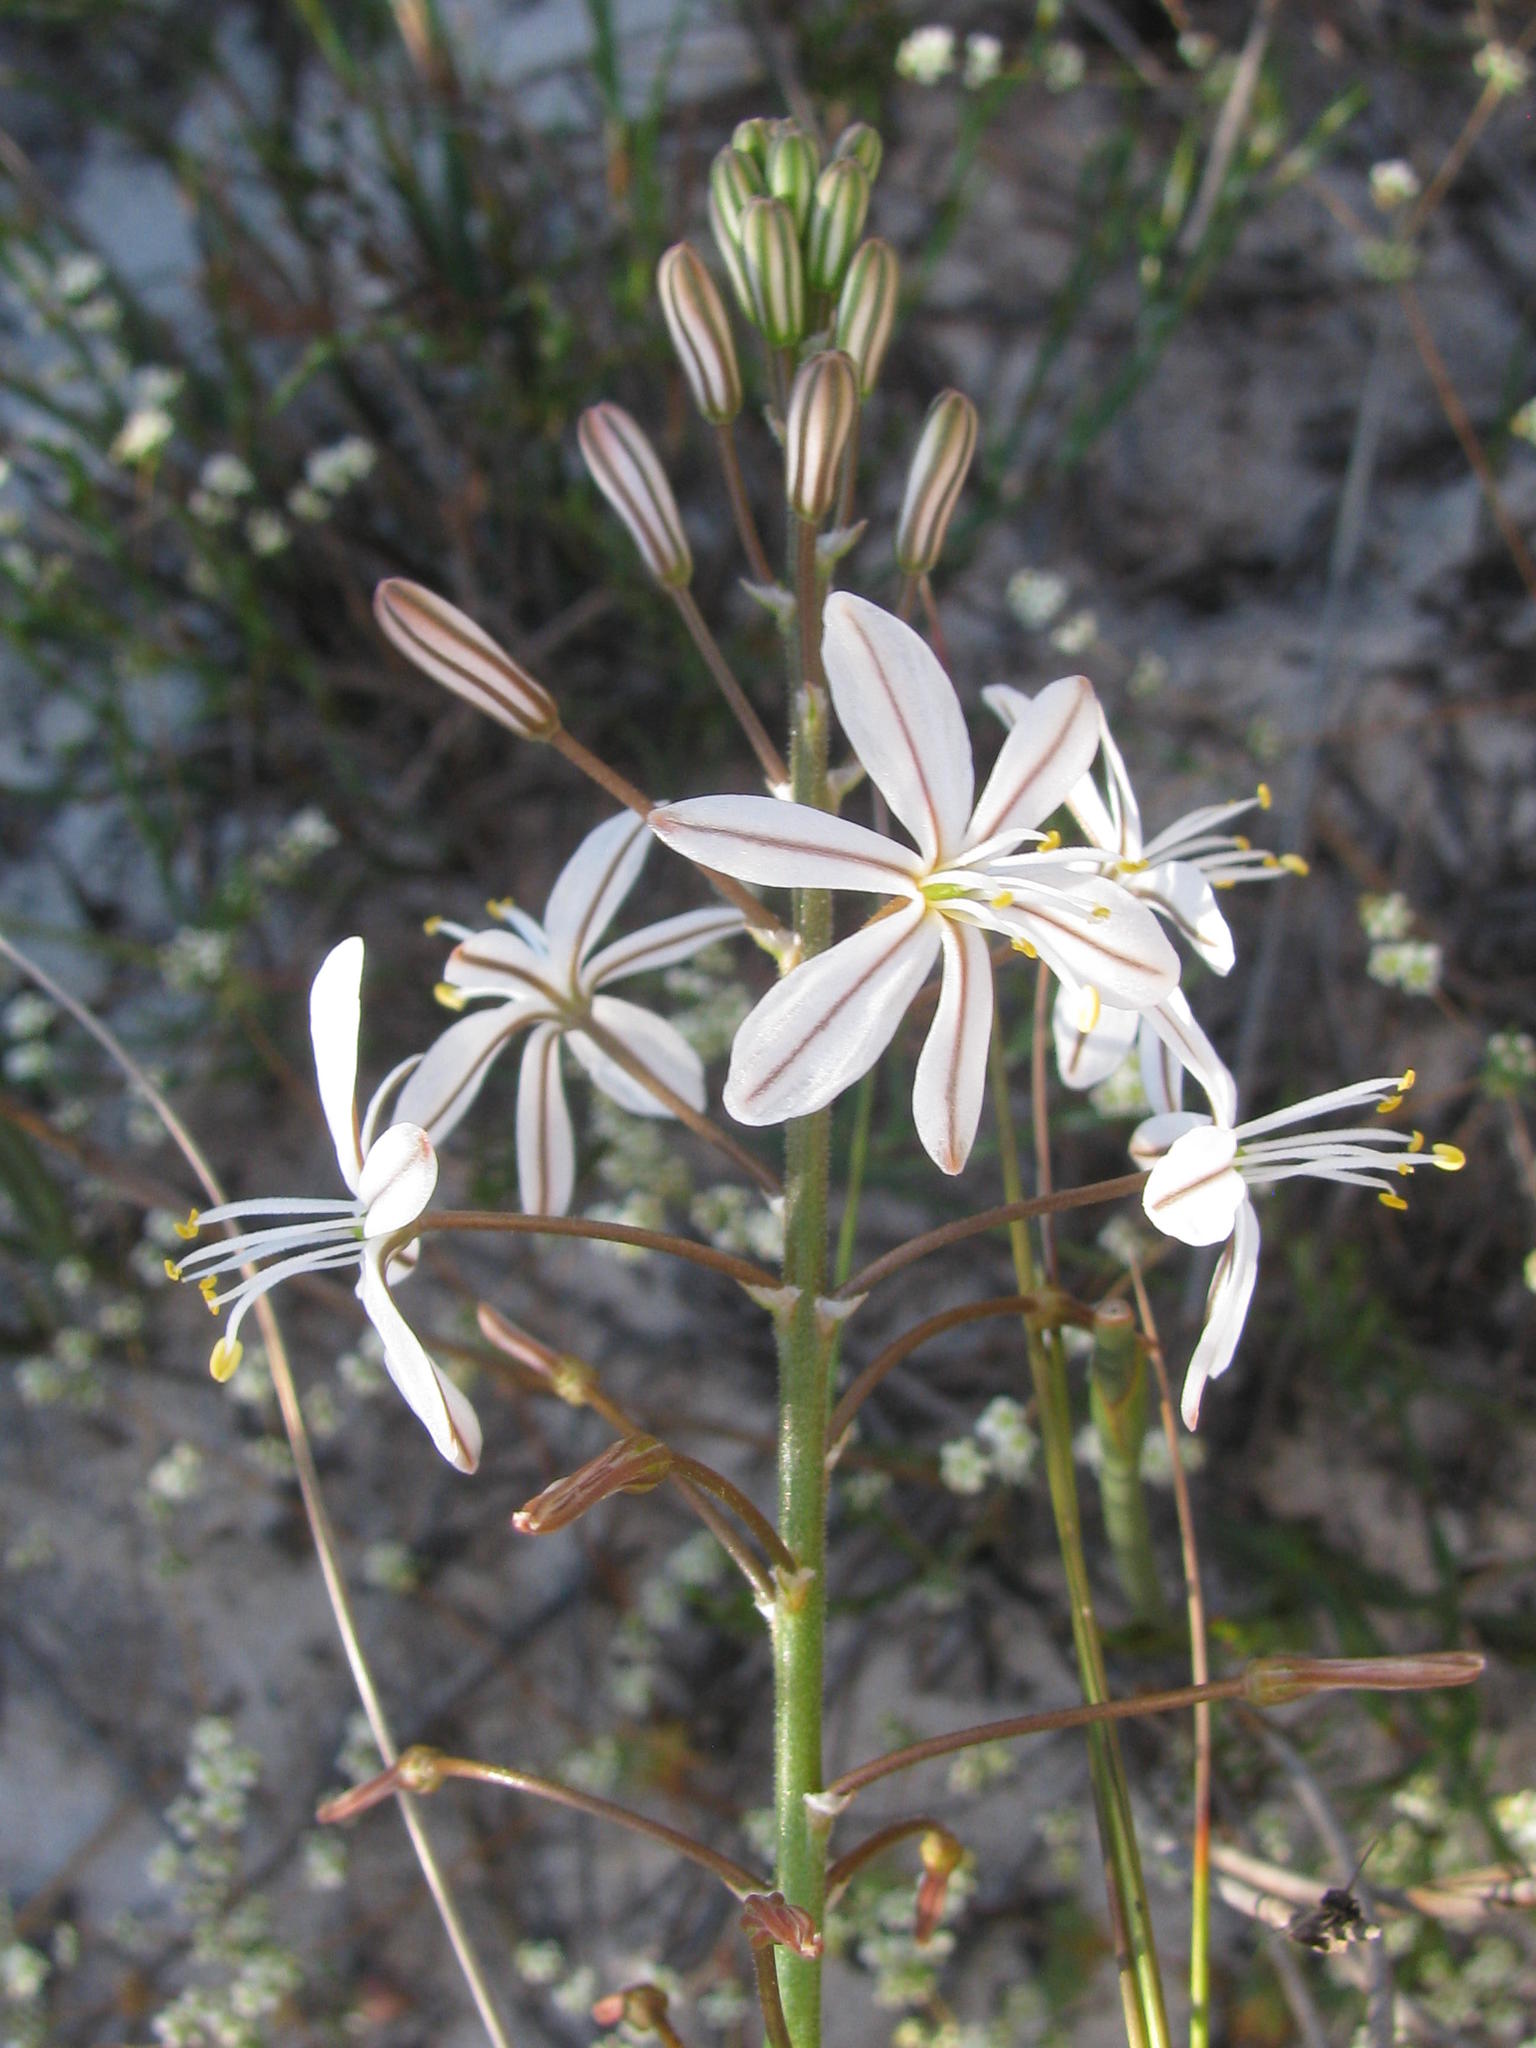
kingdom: Plantae
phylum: Tracheophyta
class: Liliopsida
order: Asparagales
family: Asphodelaceae
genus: Trachyandra
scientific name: Trachyandra hirsuta
